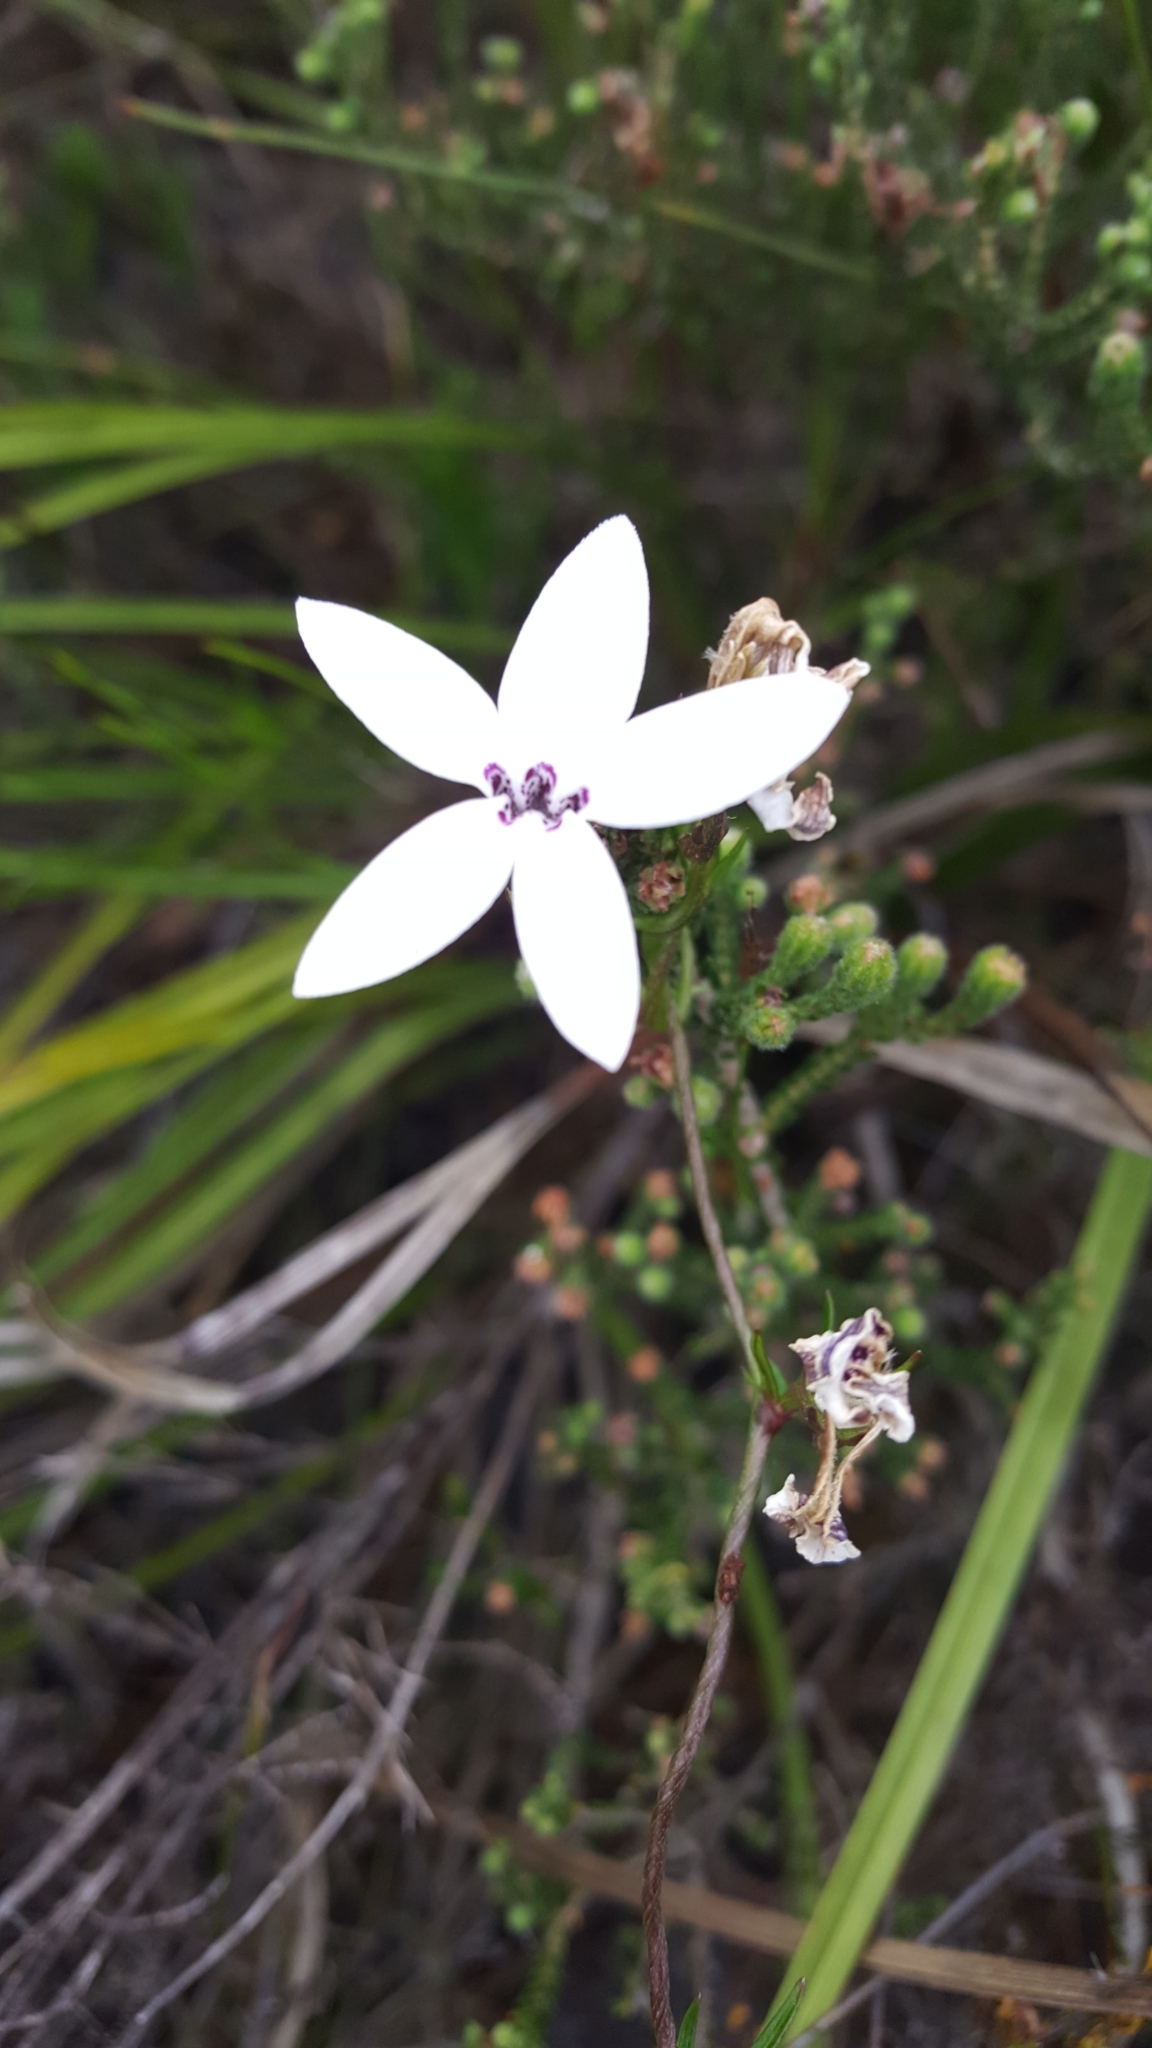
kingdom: Plantae
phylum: Tracheophyta
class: Magnoliopsida
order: Asterales
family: Campanulaceae
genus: Cyphia
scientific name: Cyphia volubilis
